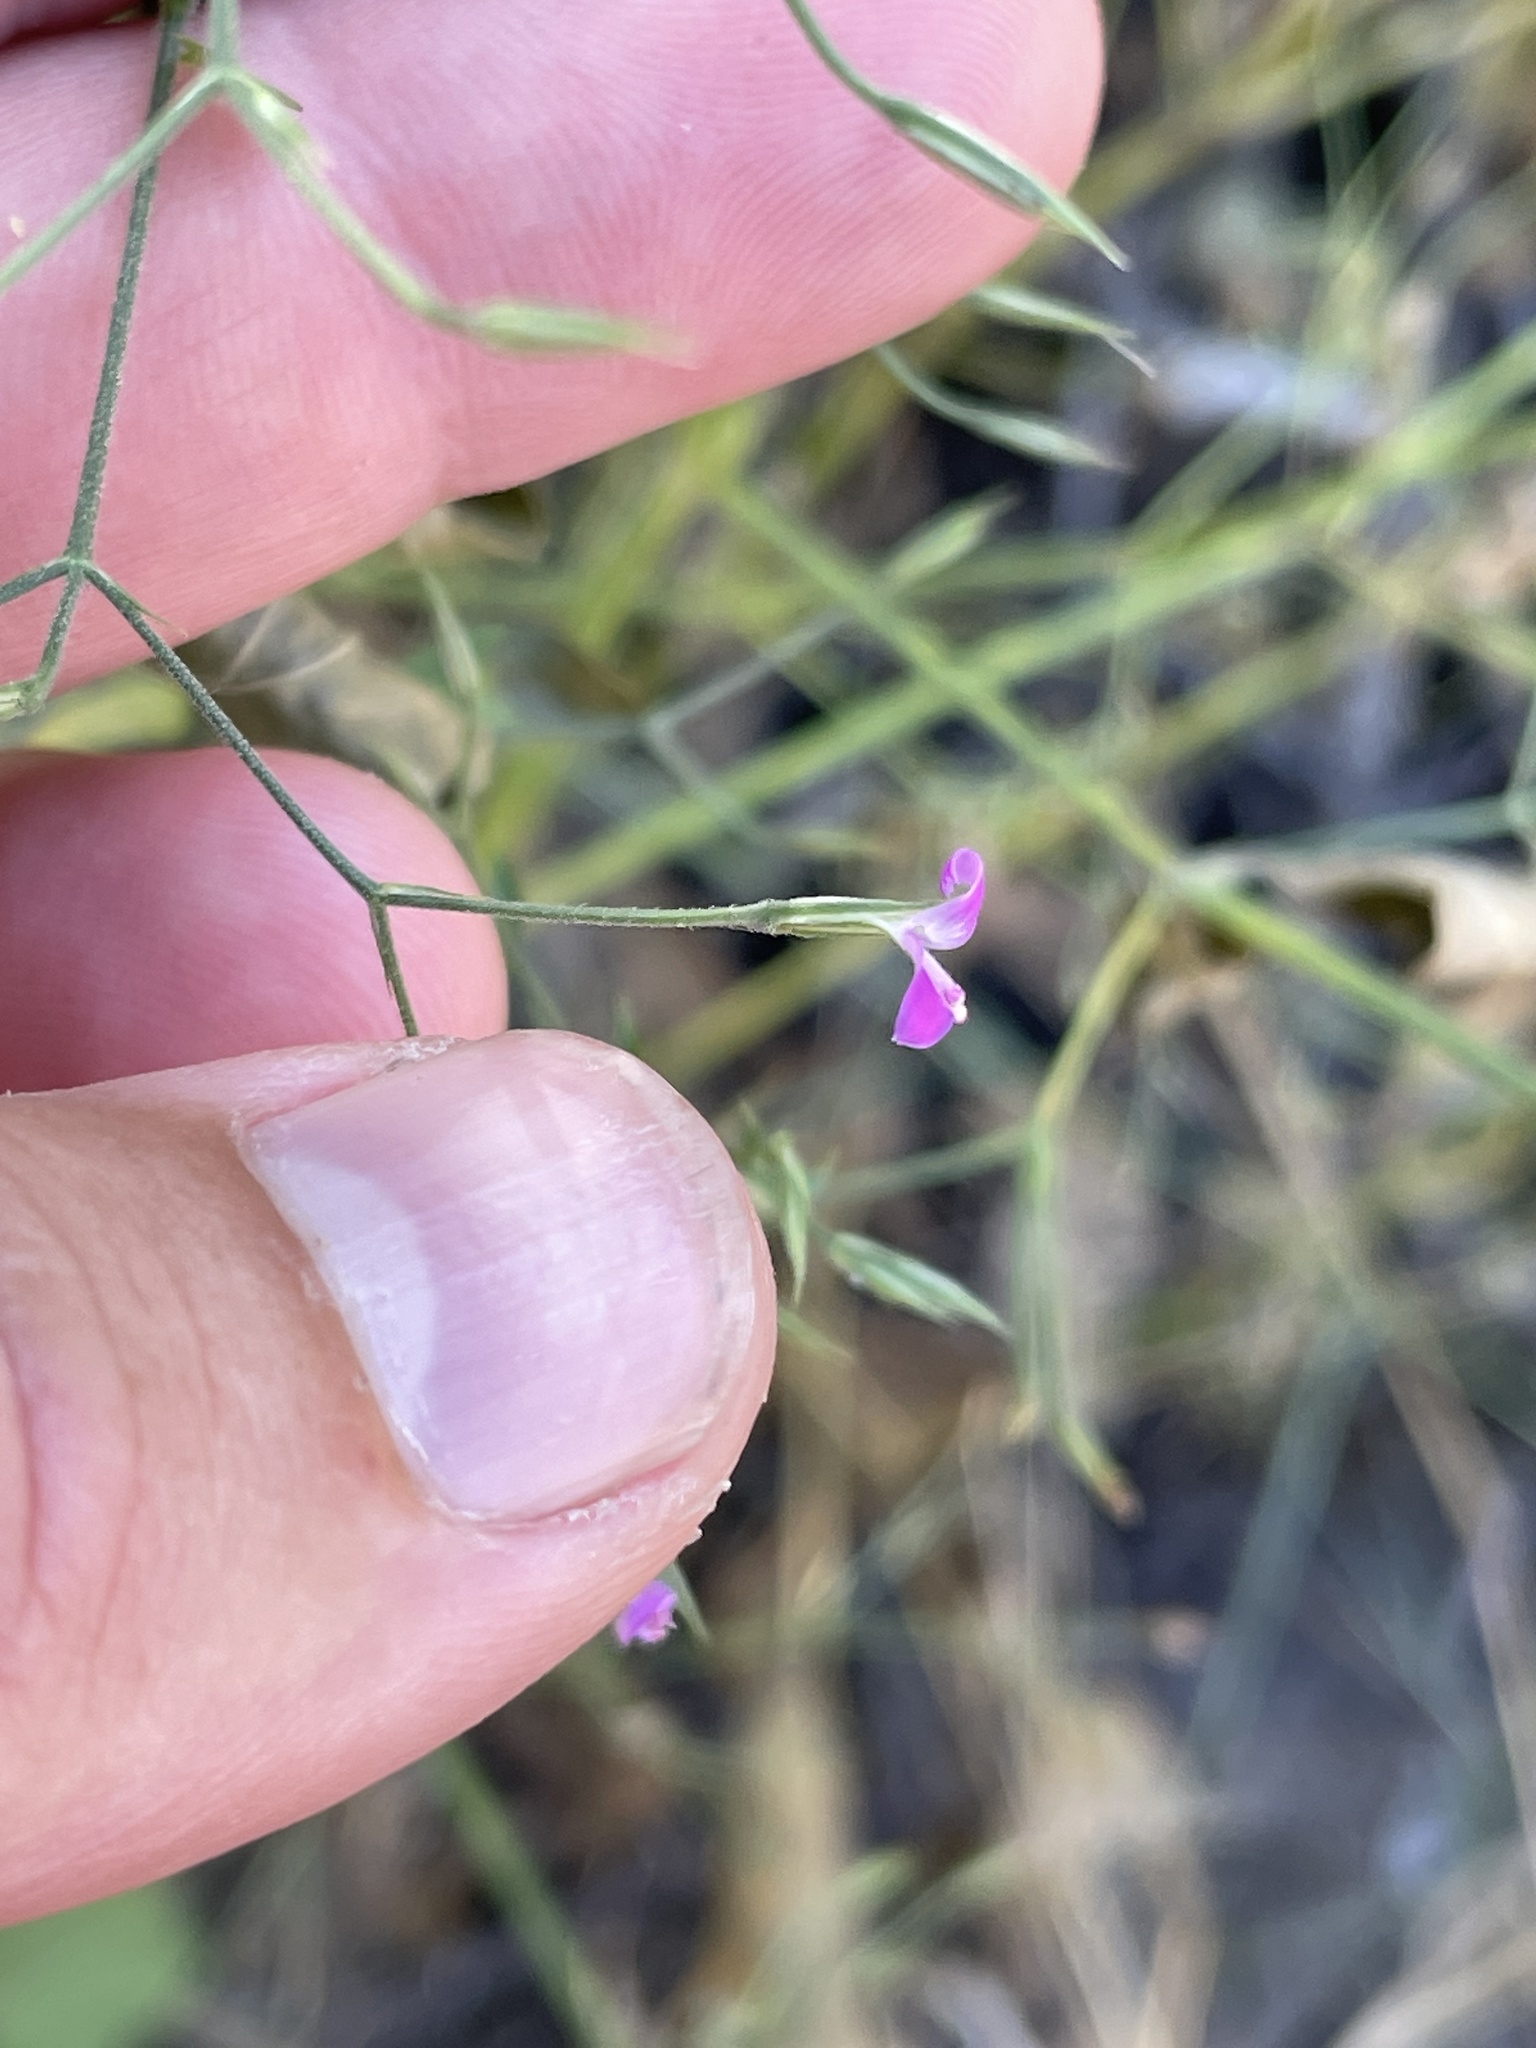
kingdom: Plantae
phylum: Tracheophyta
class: Magnoliopsida
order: Lamiales
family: Acanthaceae
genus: Dicliptera
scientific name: Dicliptera paniculata
